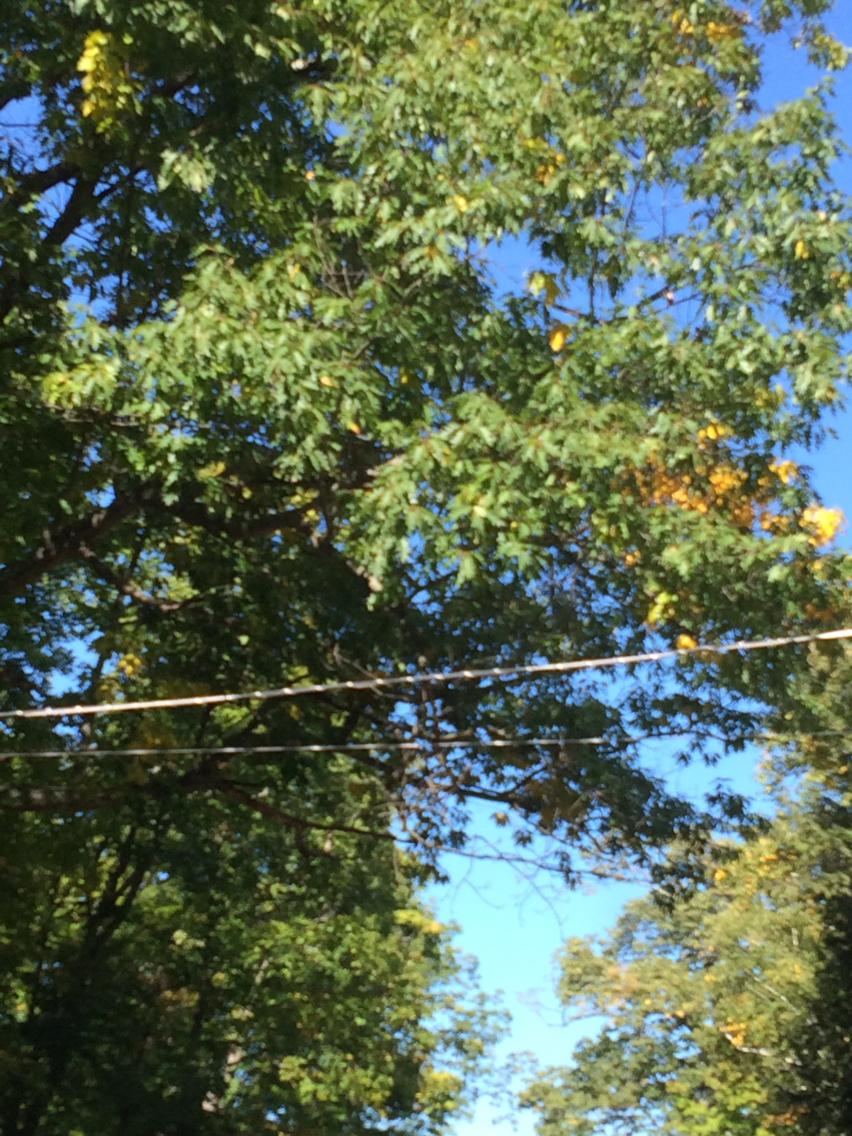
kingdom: Plantae
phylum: Tracheophyta
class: Magnoliopsida
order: Fagales
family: Fagaceae
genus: Quercus
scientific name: Quercus rubra
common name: Red oak
